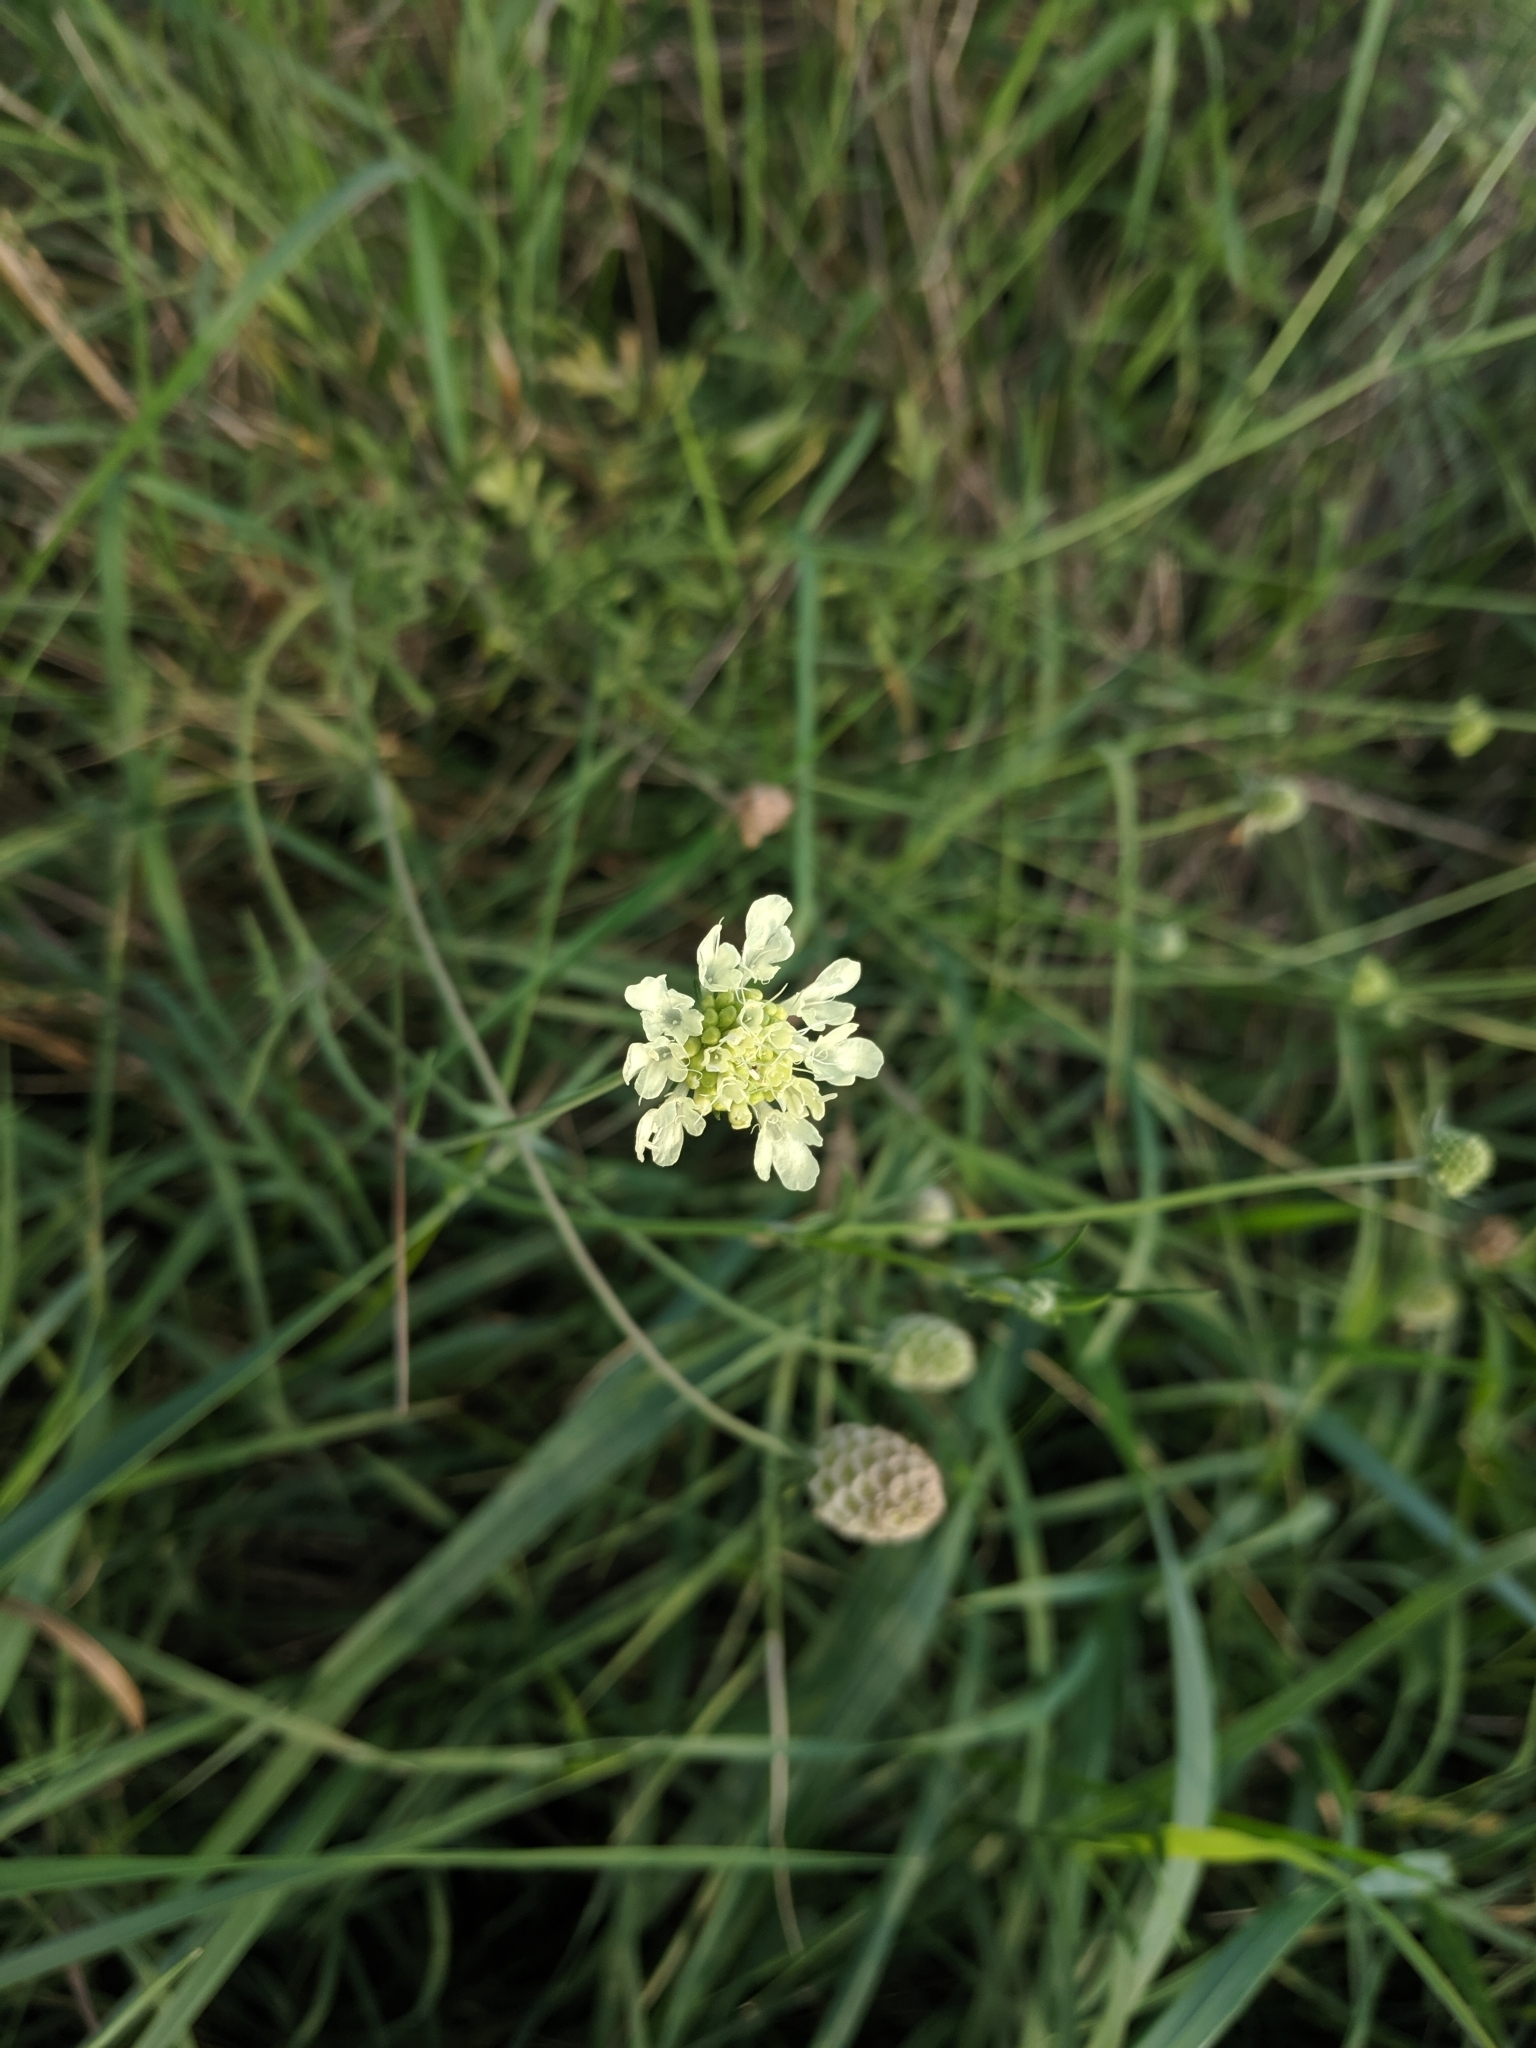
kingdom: Plantae
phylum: Tracheophyta
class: Magnoliopsida
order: Dipsacales
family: Caprifoliaceae
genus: Scabiosa
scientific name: Scabiosa ochroleuca
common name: Cream pincushions
